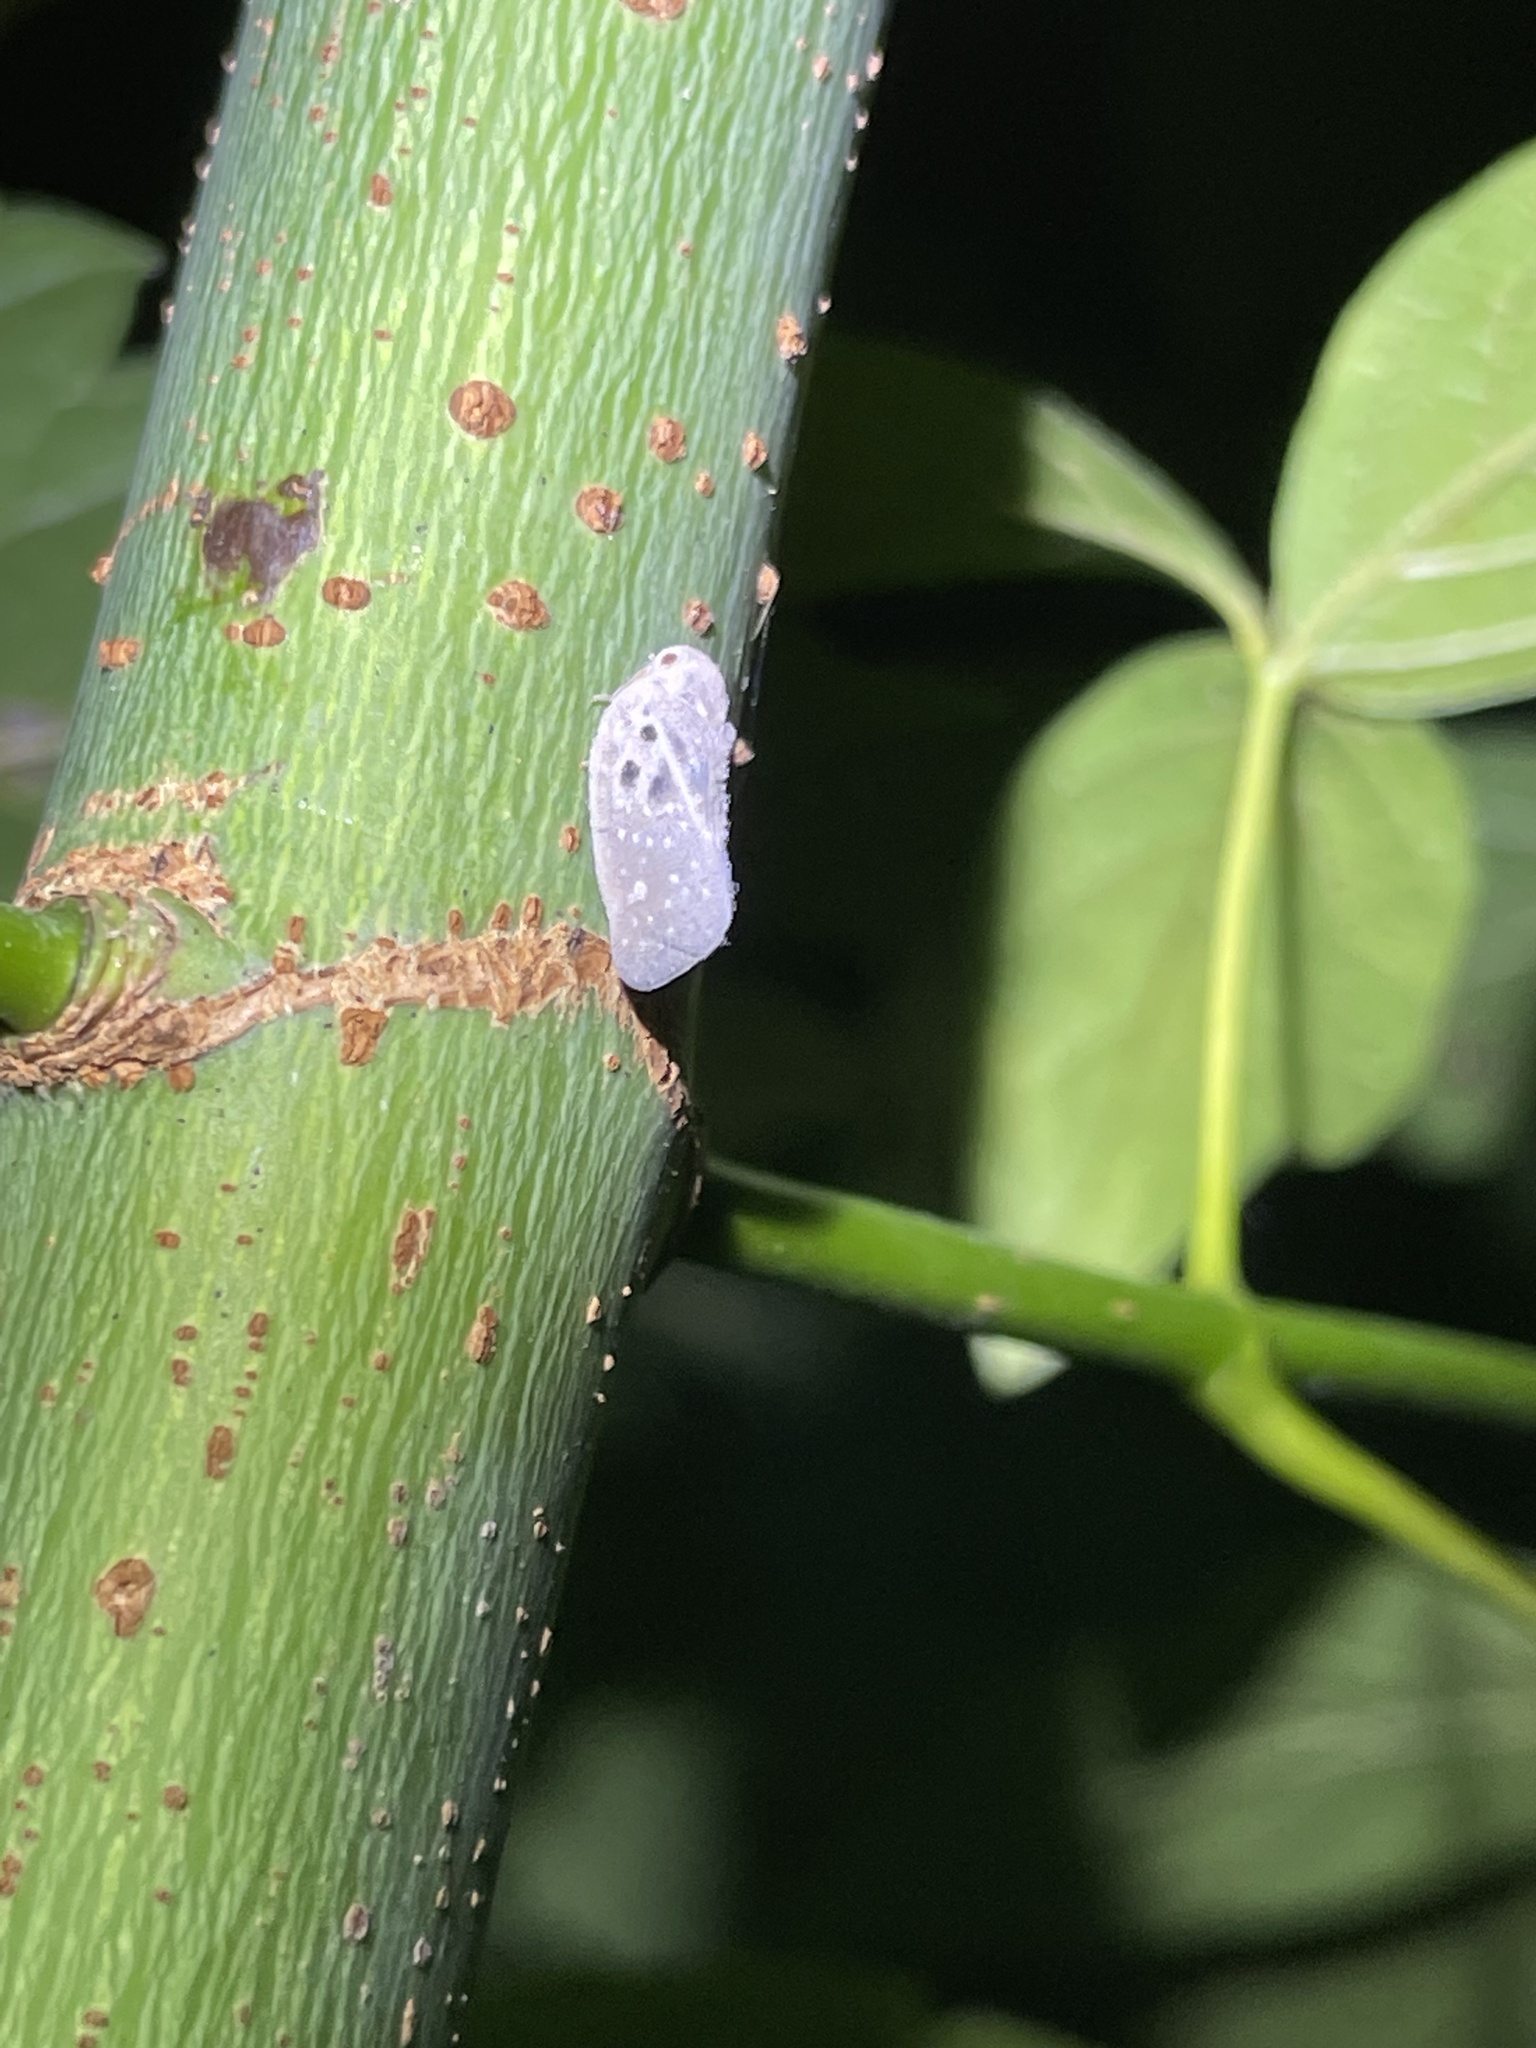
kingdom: Animalia
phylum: Arthropoda
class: Insecta
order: Hemiptera
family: Flatidae
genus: Metcalfa
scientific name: Metcalfa pruinosa
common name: Citrus flatid planthopper
